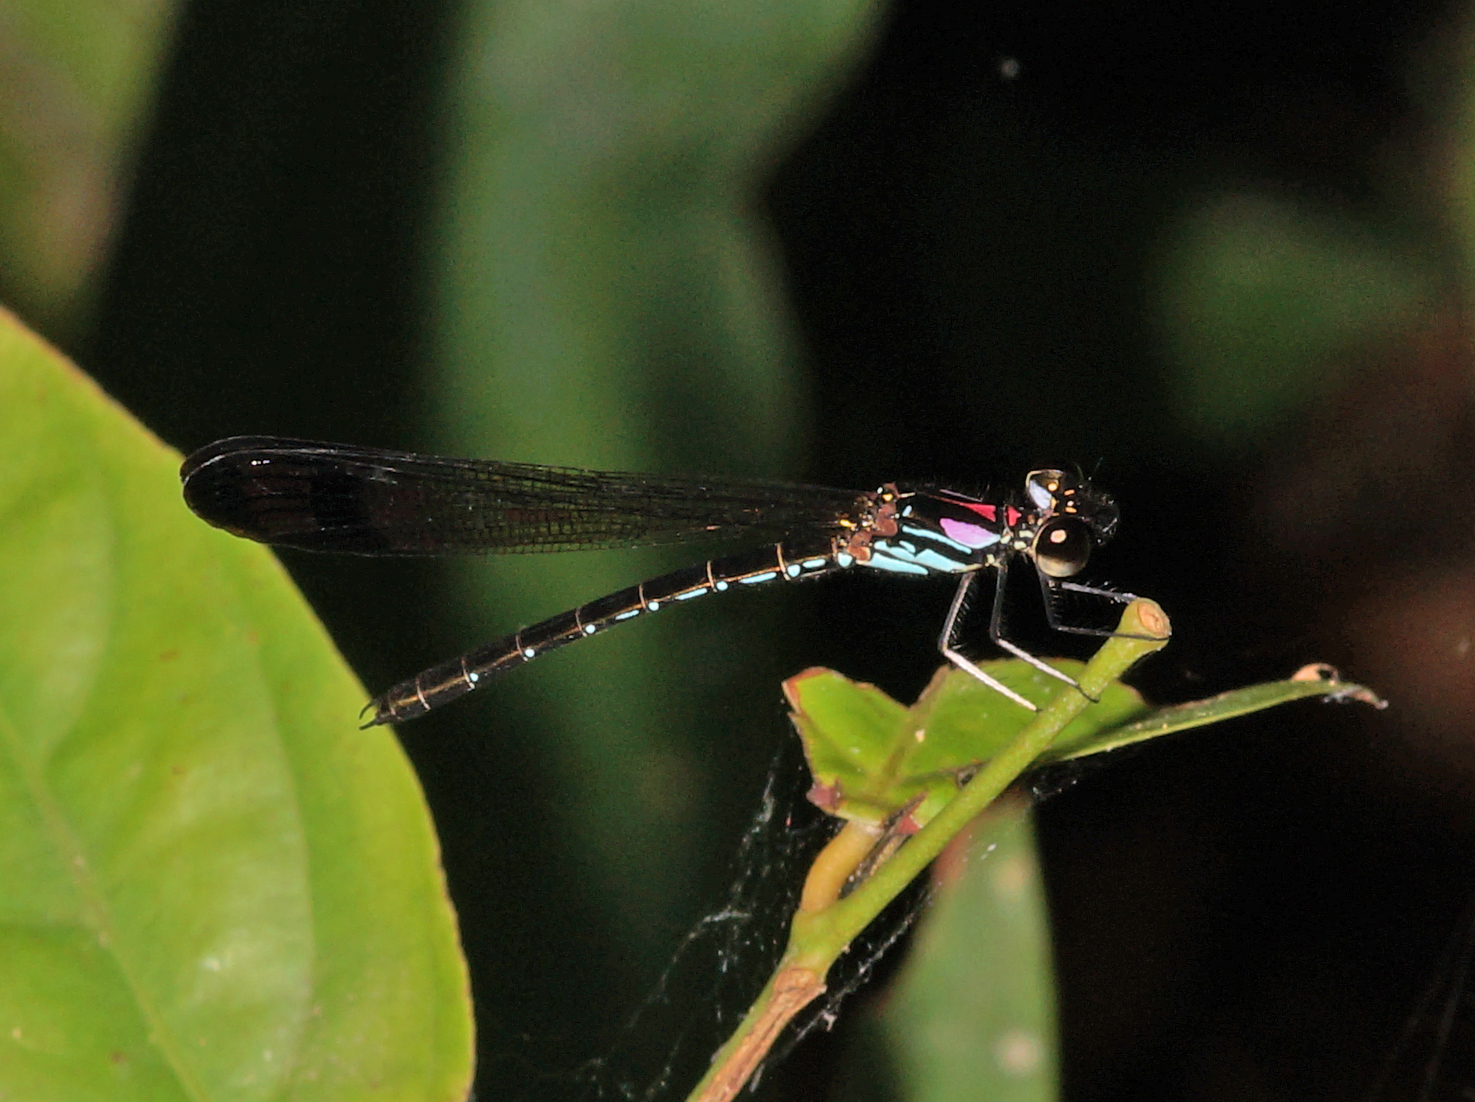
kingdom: Animalia
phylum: Arthropoda
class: Insecta
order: Odonata
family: Chlorocyphidae
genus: Heliocypha
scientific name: Heliocypha biforata
